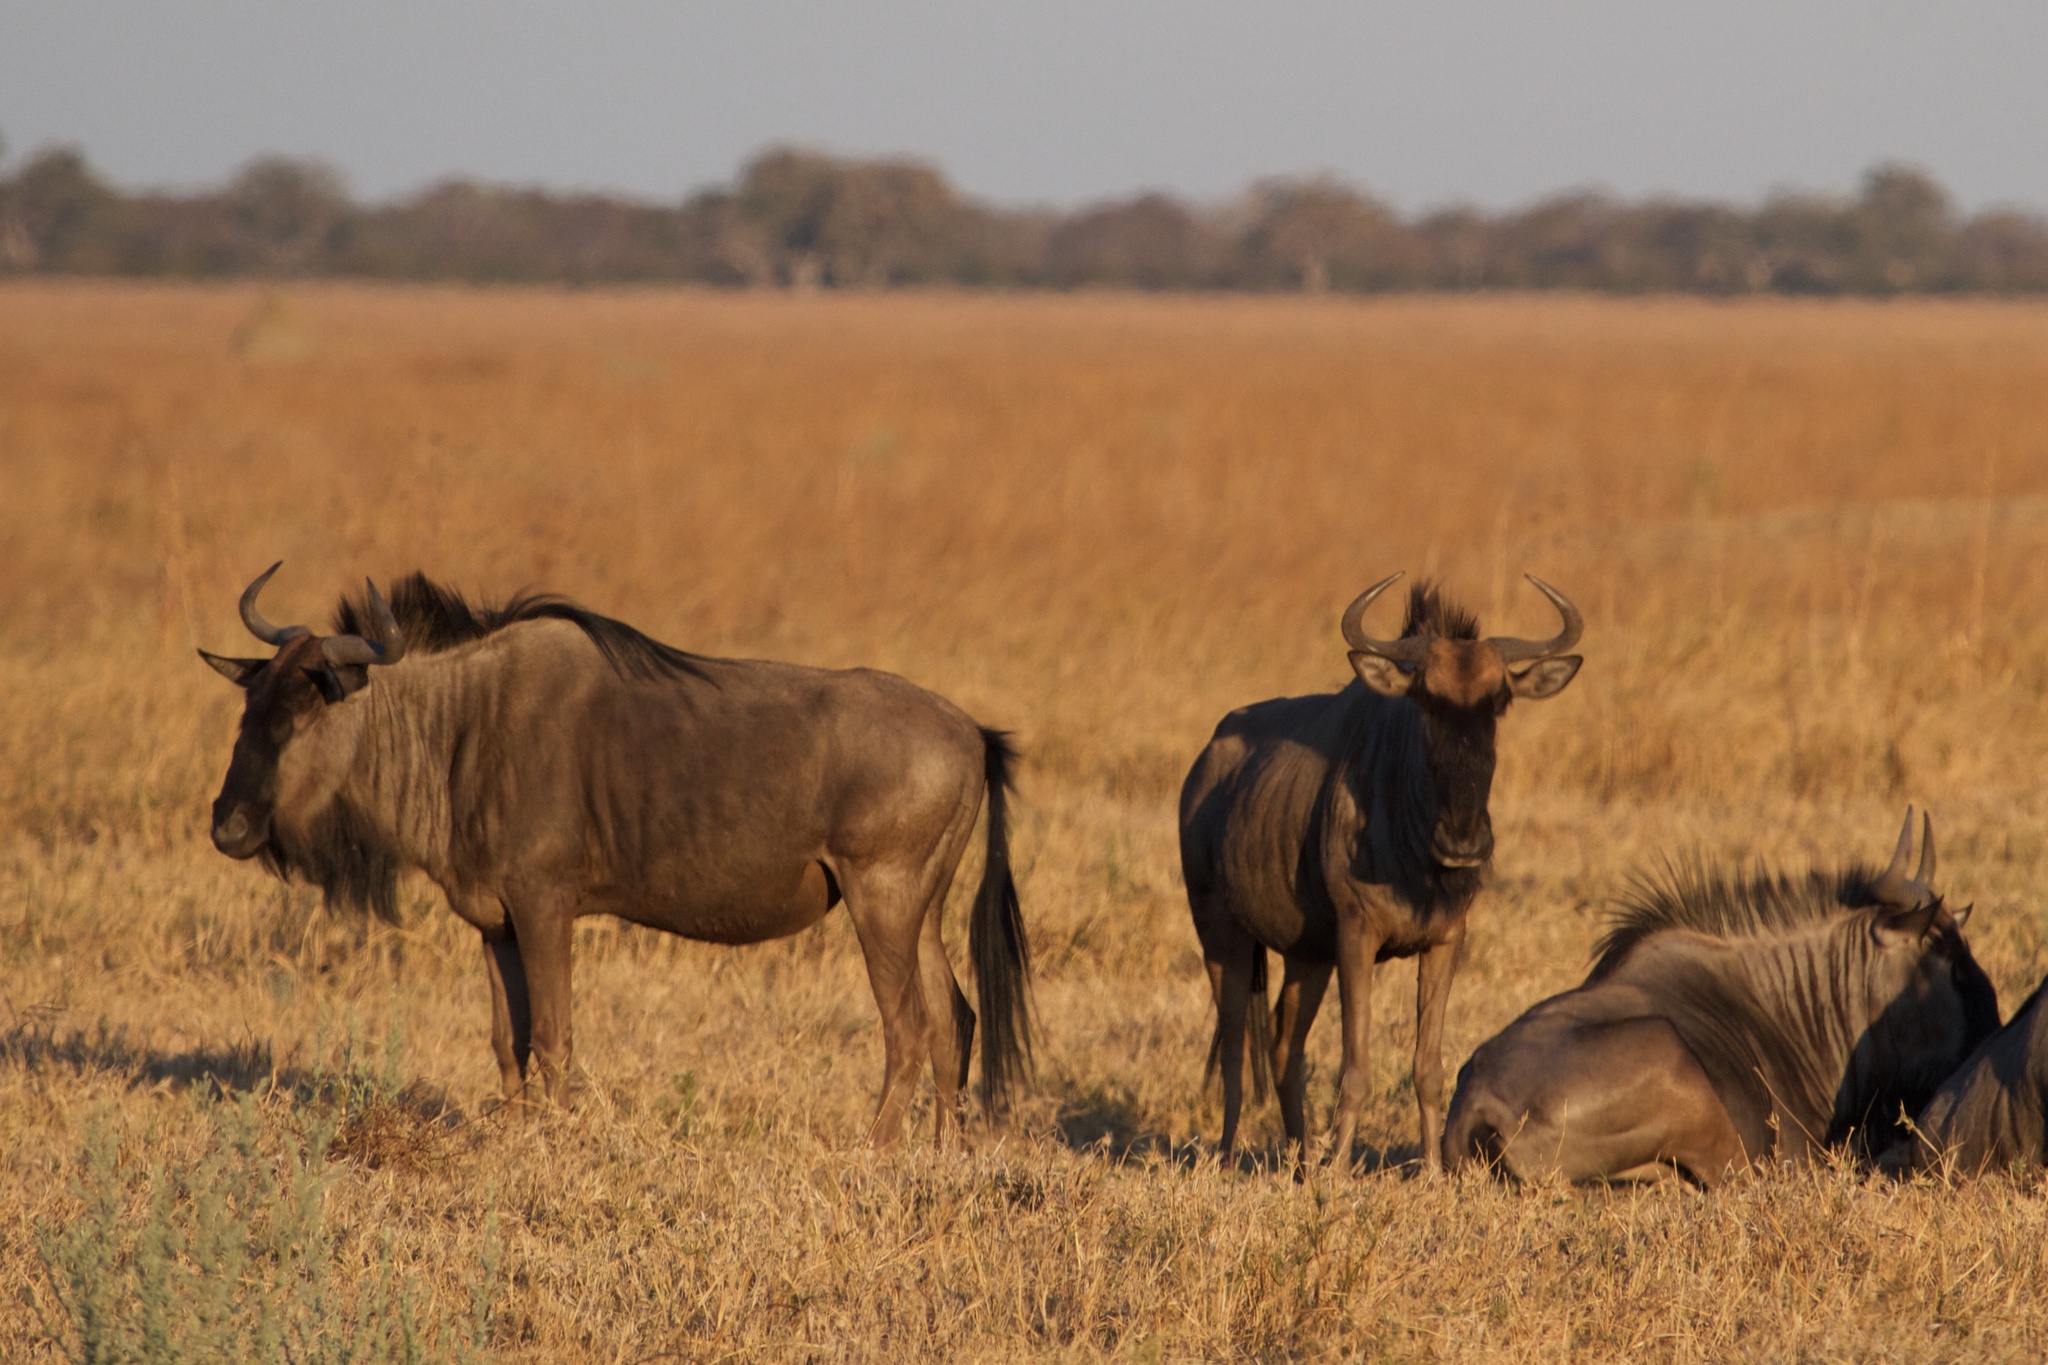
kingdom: Animalia
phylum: Chordata
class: Mammalia
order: Artiodactyla
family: Bovidae
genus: Connochaetes
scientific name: Connochaetes taurinus
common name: Blue wildebeest
